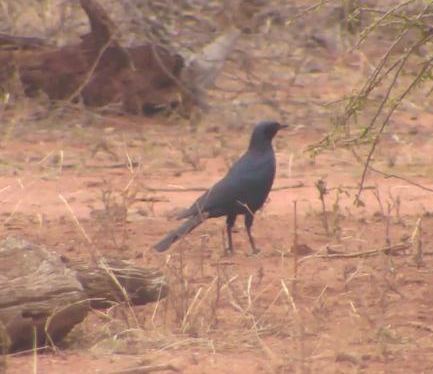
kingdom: Animalia
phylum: Chordata
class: Aves
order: Passeriformes
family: Sturnidae
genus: Lamprotornis
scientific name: Lamprotornis australis
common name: Burchell's starling
